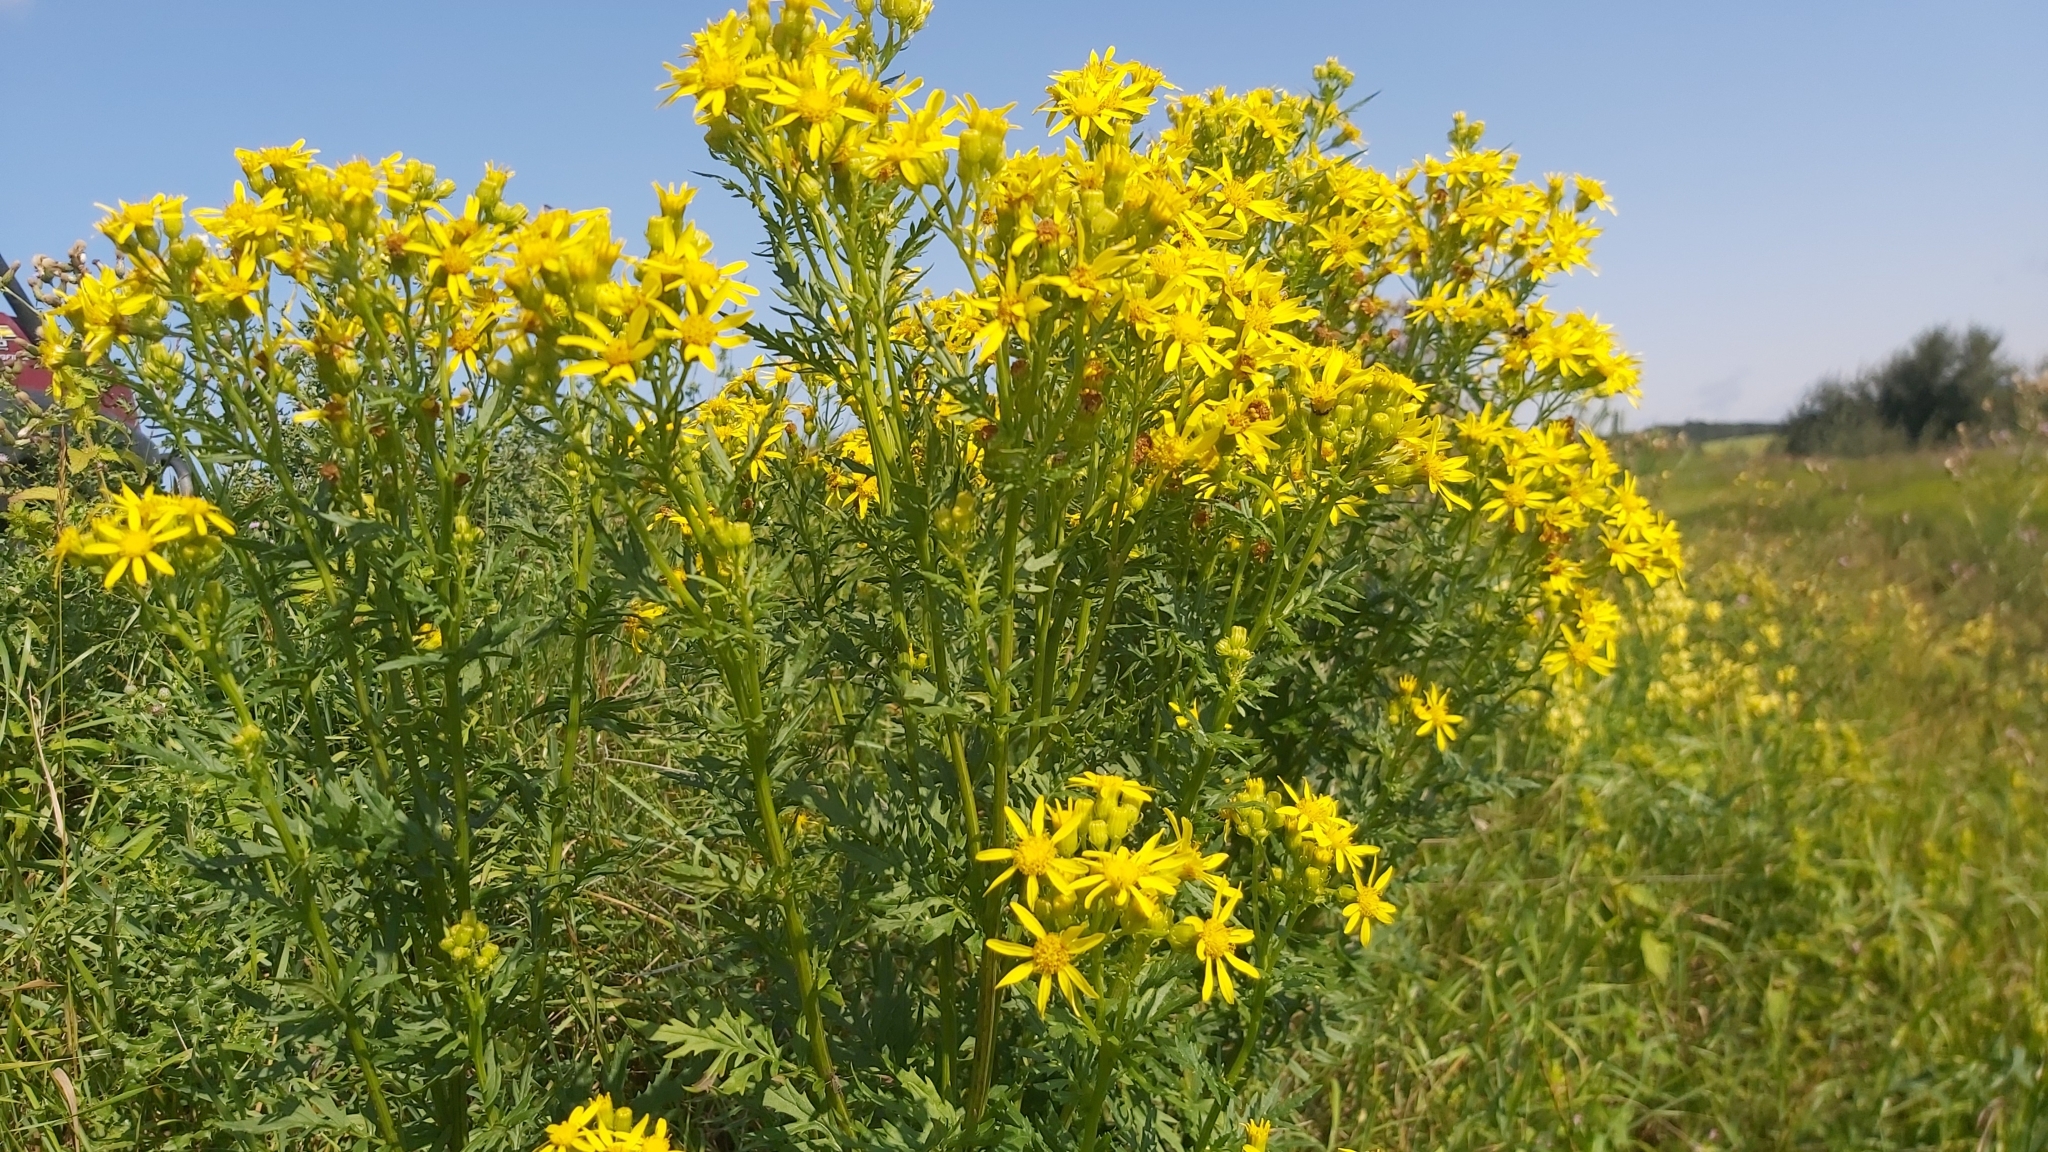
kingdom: Plantae
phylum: Tracheophyta
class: Magnoliopsida
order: Asterales
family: Asteraceae
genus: Senecio
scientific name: Senecio eremophilus
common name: Desert ragwort
